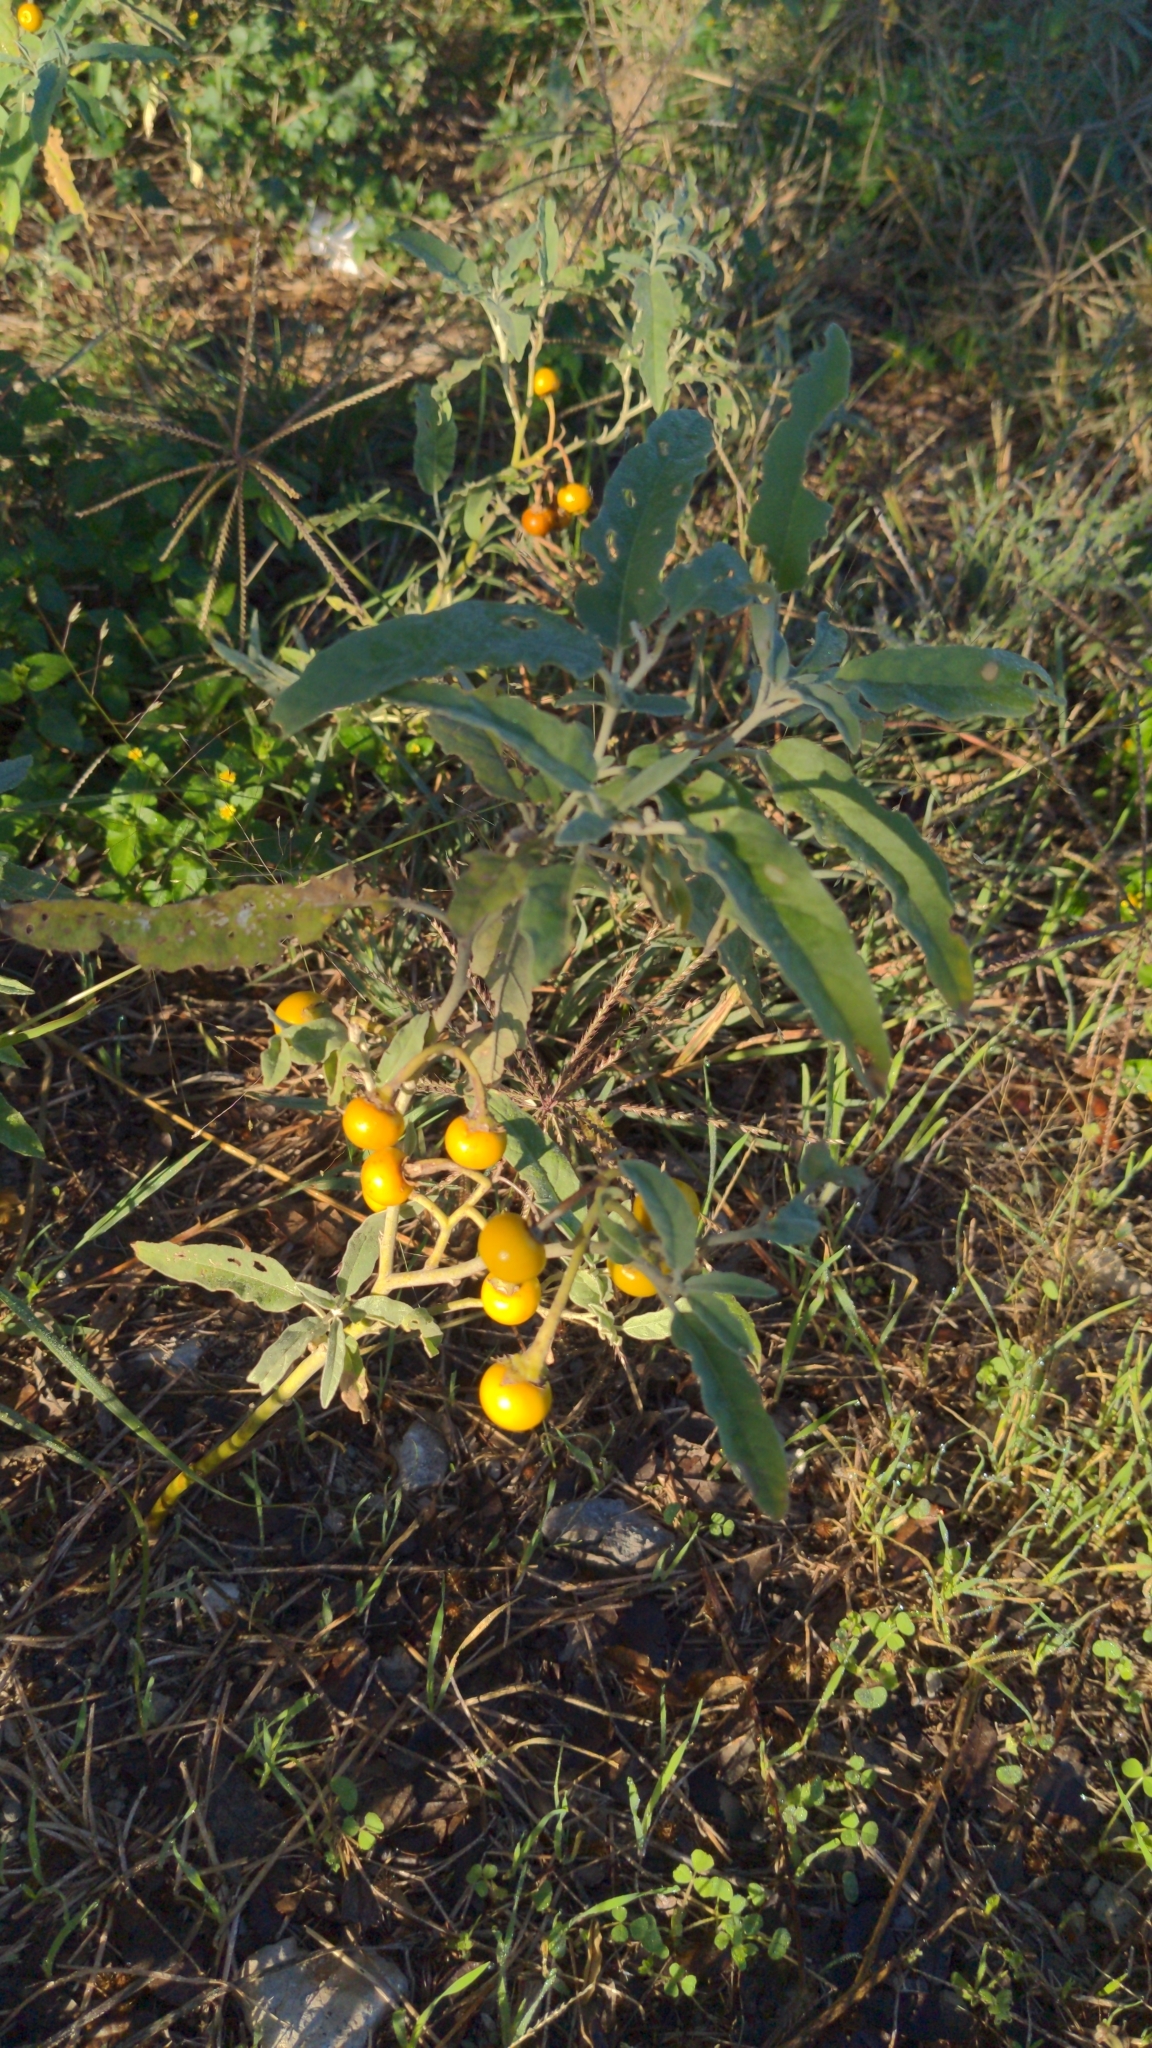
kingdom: Plantae
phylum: Tracheophyta
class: Magnoliopsida
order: Solanales
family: Solanaceae
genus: Solanum
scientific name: Solanum elaeagnifolium
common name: Silverleaf nightshade
